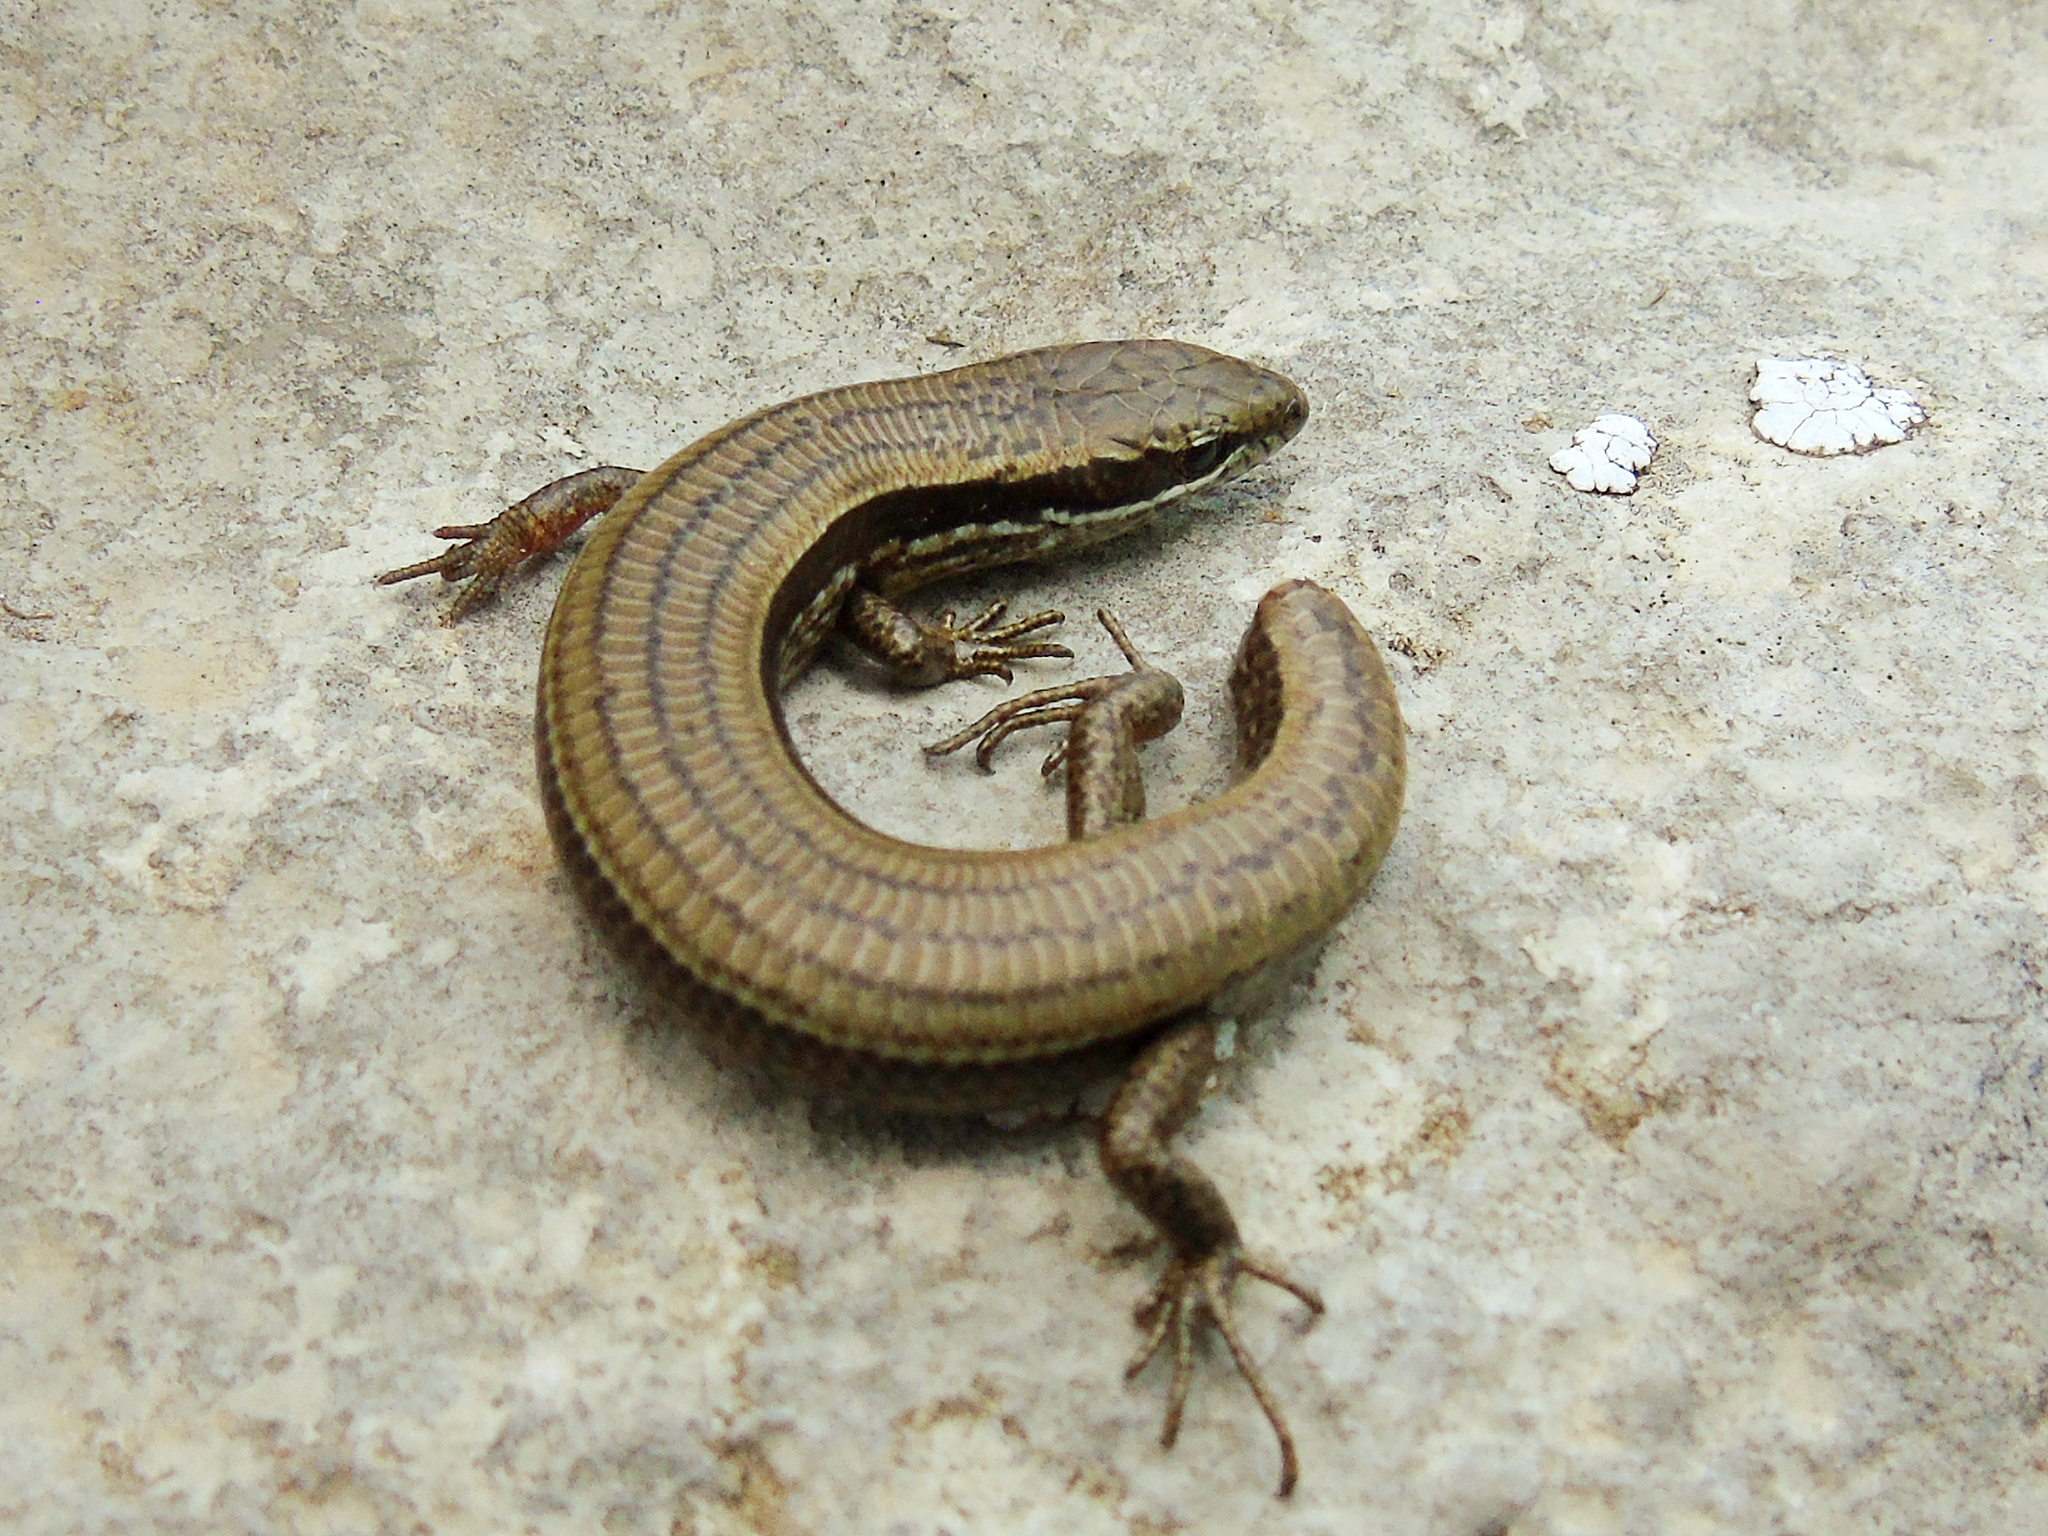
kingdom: Animalia
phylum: Chordata
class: Squamata
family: Scincidae
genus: Asymblepharus
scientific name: Asymblepharus alaicus
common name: Alai ground skink
